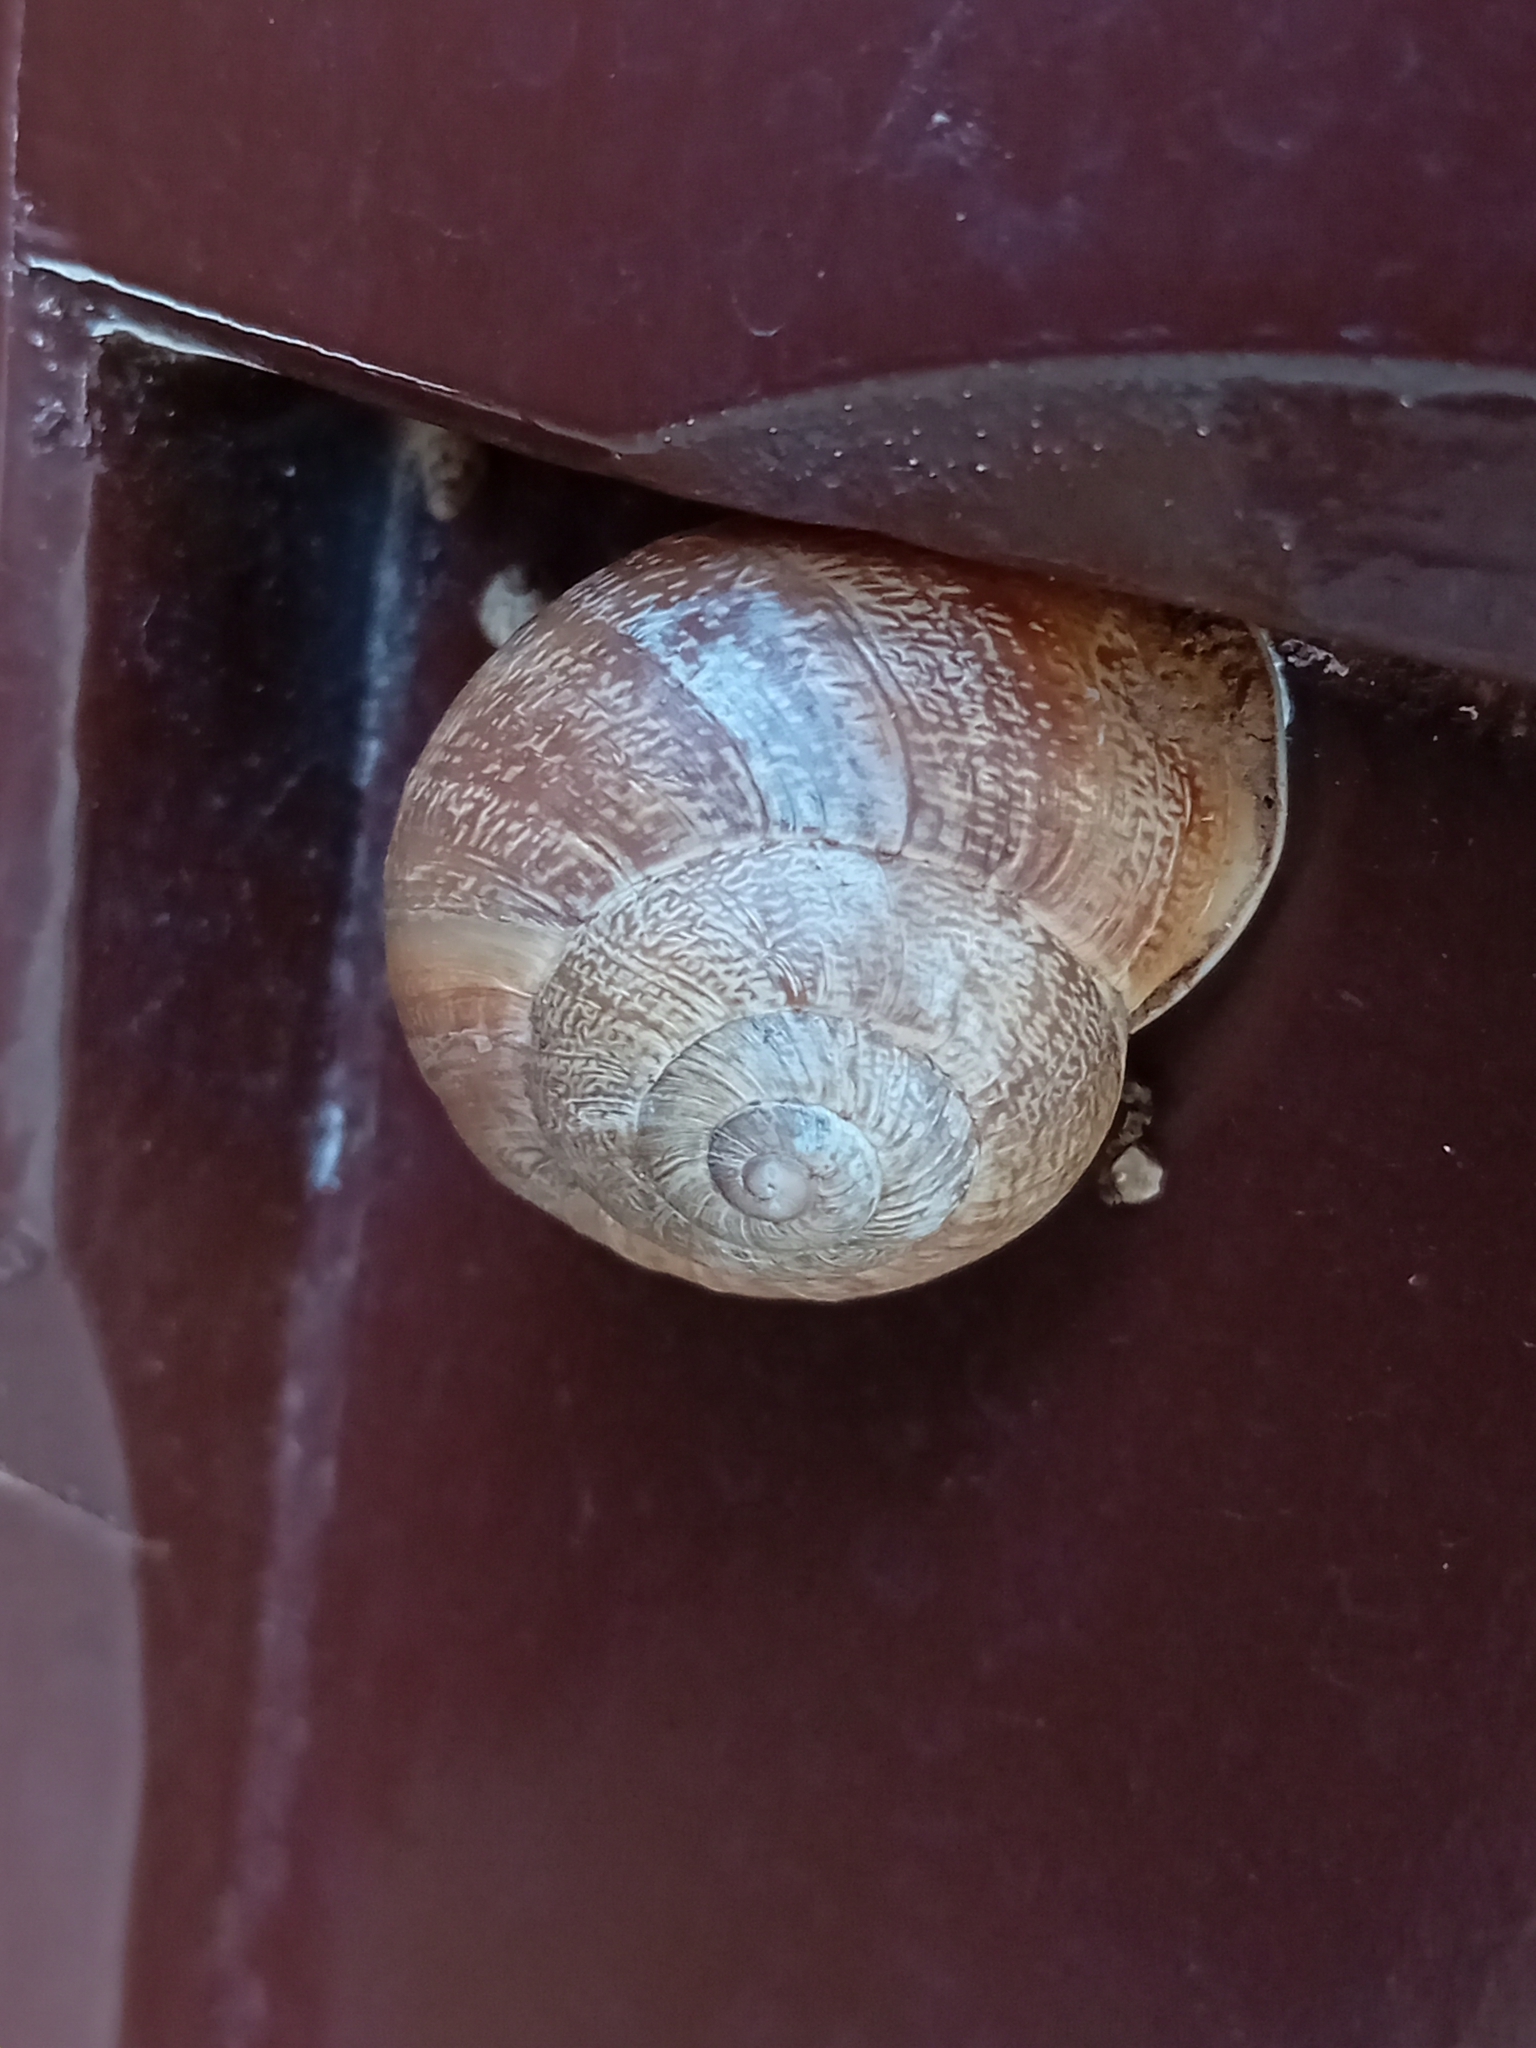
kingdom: Animalia
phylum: Mollusca
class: Gastropoda
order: Stylommatophora
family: Helicidae
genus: Eobania
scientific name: Eobania vermiculata
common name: Chocolateband snail
